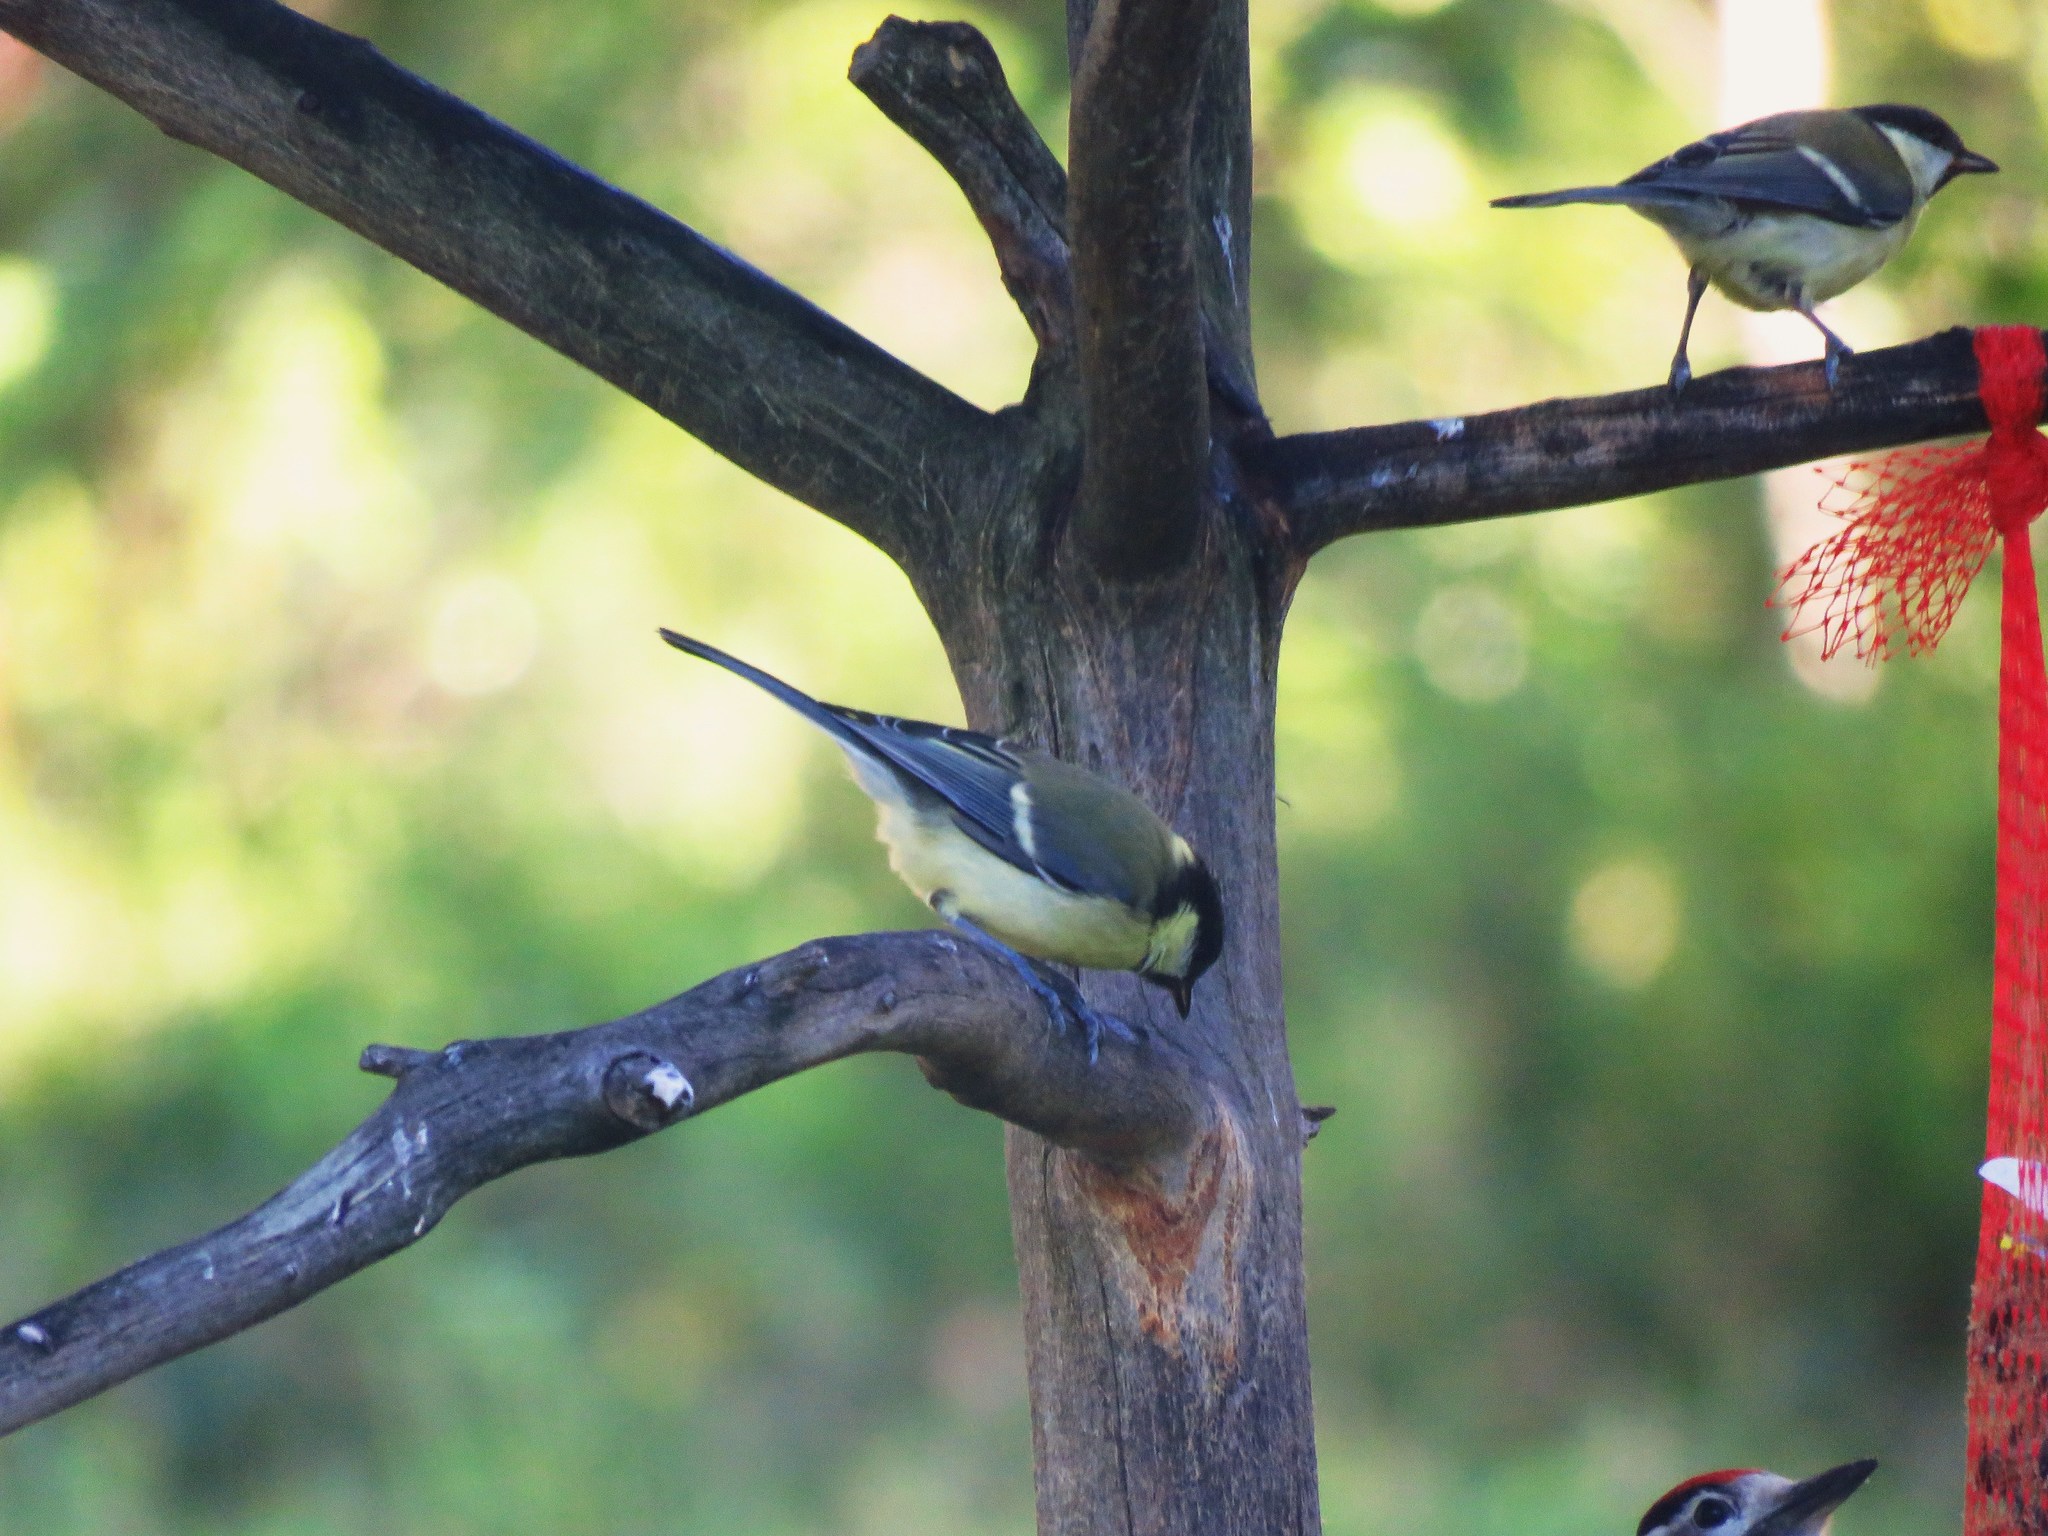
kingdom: Animalia
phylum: Chordata
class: Aves
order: Passeriformes
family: Paridae
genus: Parus
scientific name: Parus major
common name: Great tit
